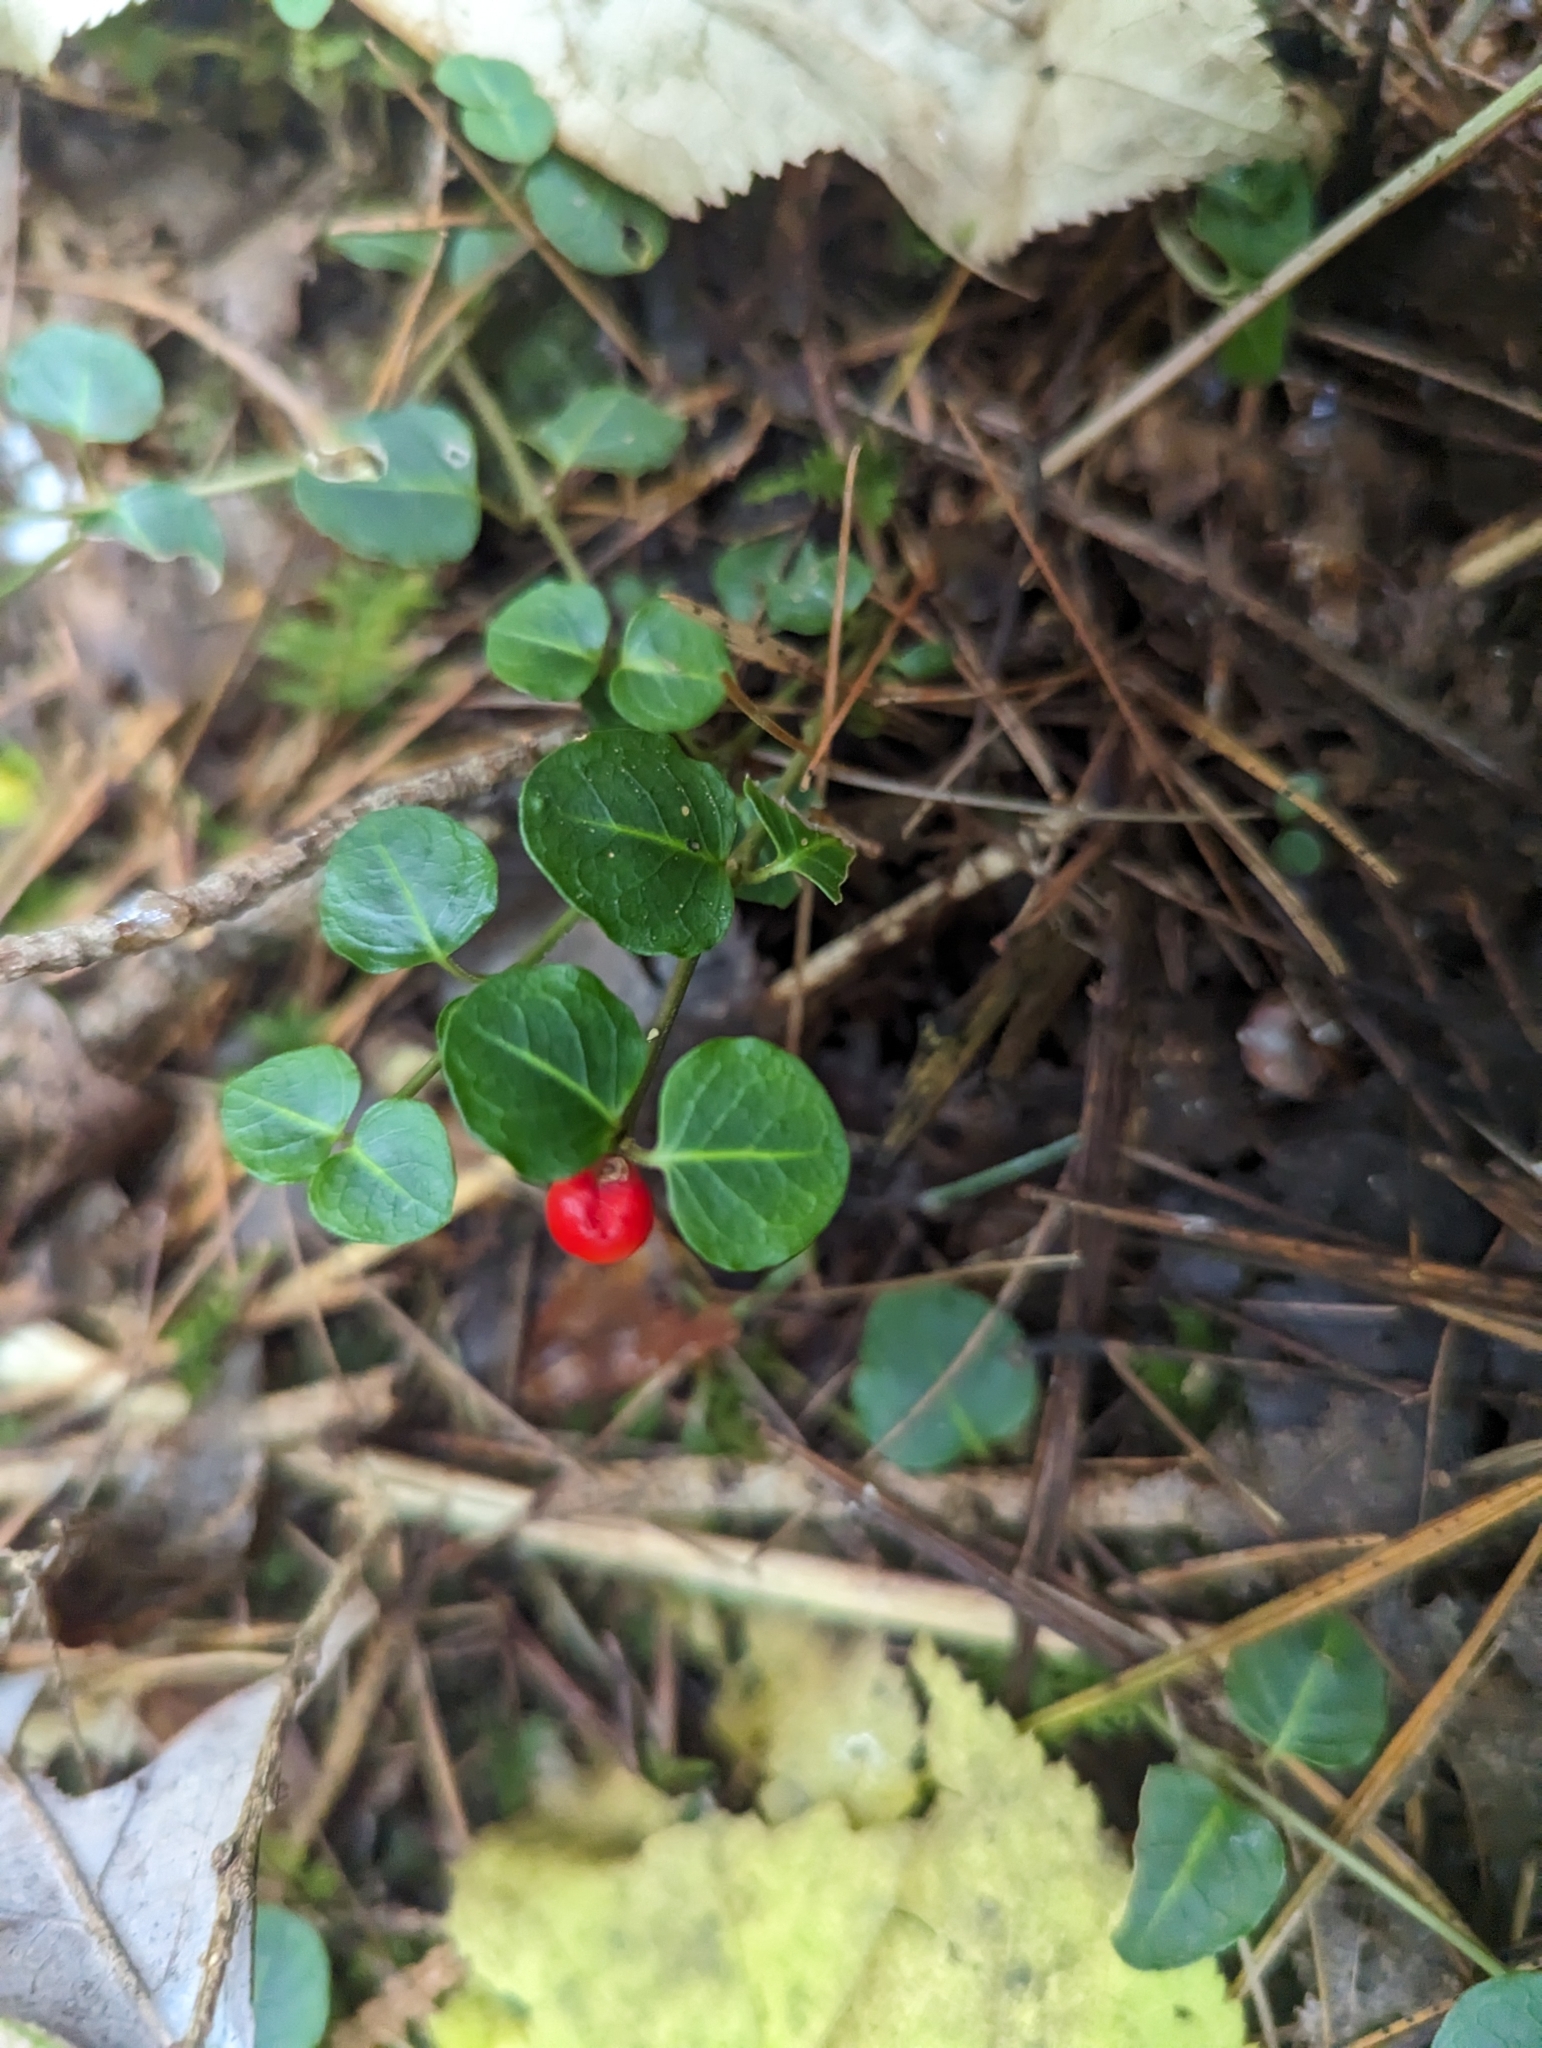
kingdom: Plantae
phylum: Tracheophyta
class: Magnoliopsida
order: Gentianales
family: Rubiaceae
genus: Mitchella
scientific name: Mitchella repens
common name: Partridge-berry
